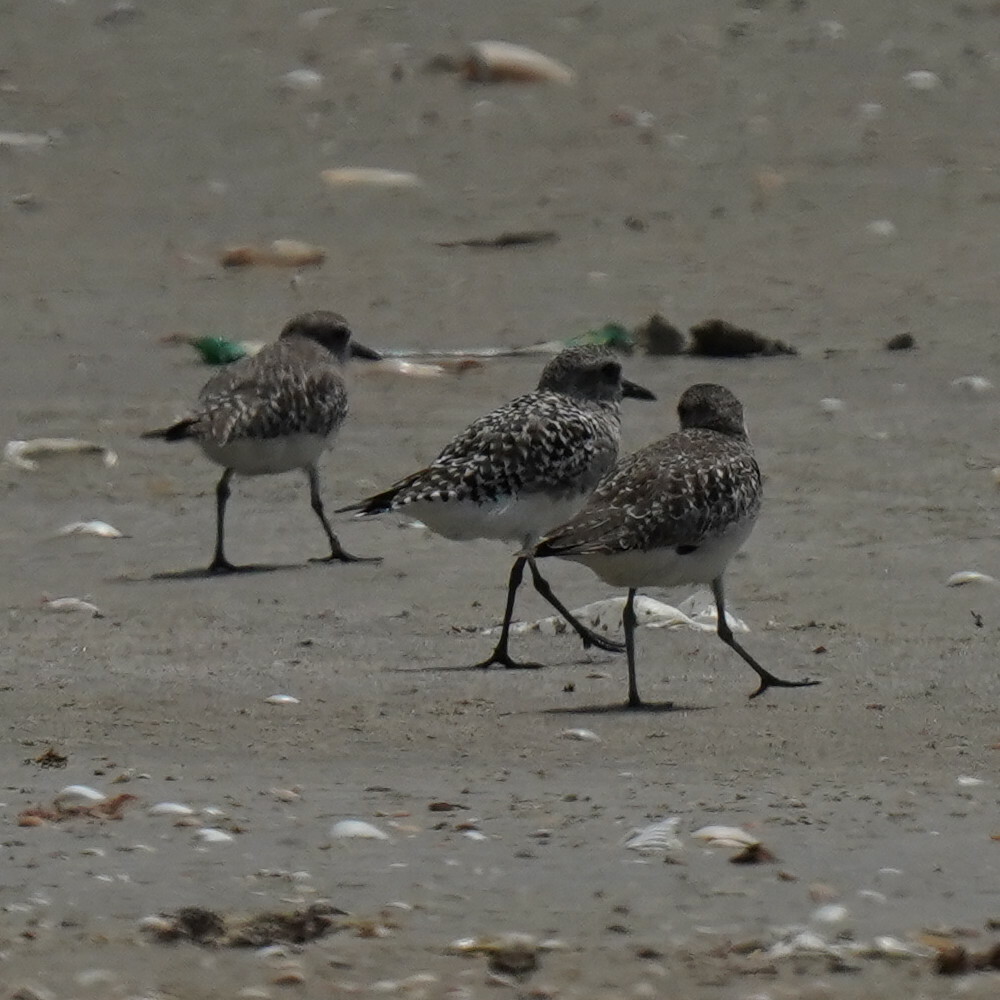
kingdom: Animalia
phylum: Chordata
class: Aves
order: Charadriiformes
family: Charadriidae
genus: Pluvialis
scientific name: Pluvialis squatarola
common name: Grey plover
